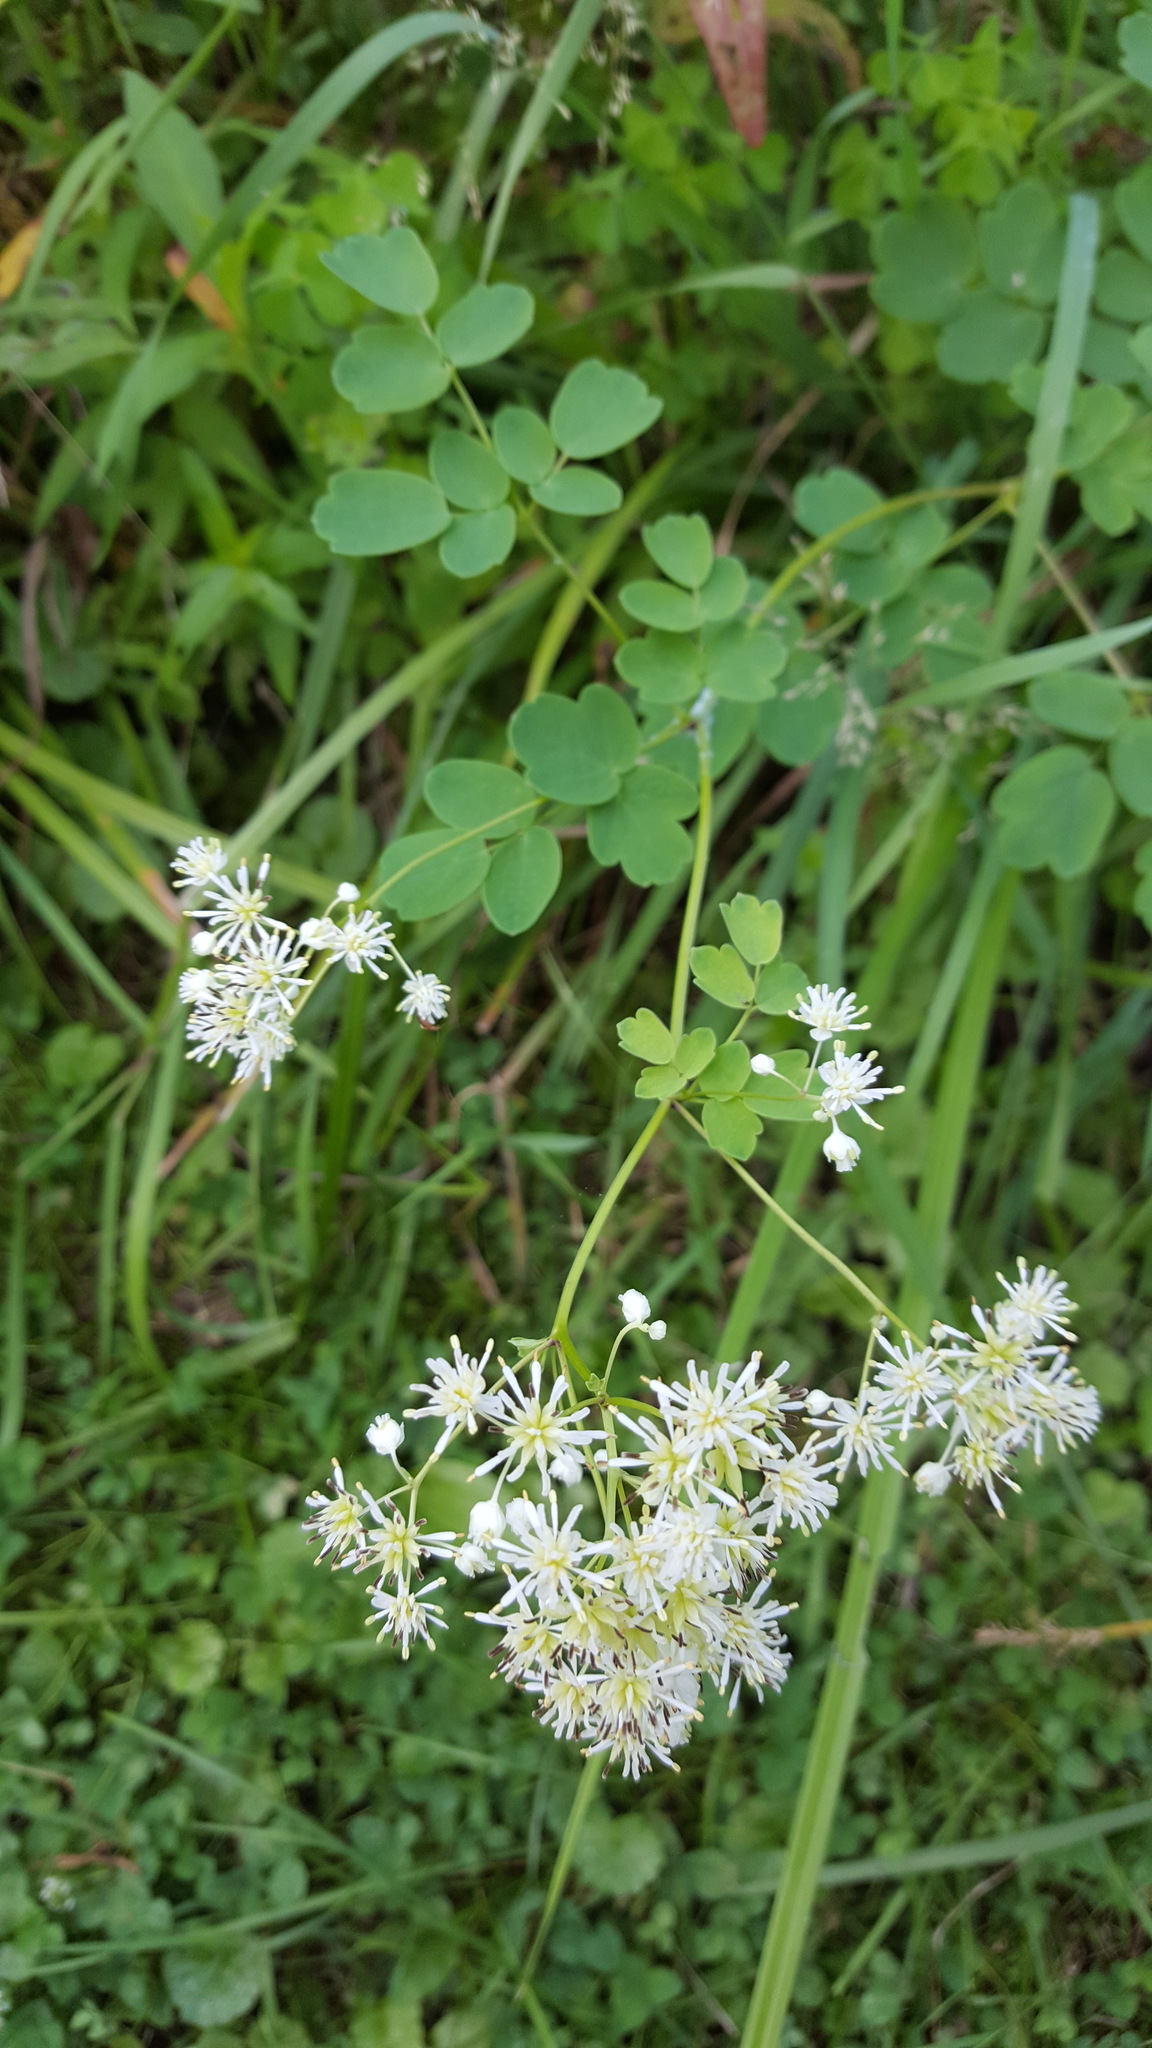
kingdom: Plantae
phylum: Tracheophyta
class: Magnoliopsida
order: Ranunculales
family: Ranunculaceae
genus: Thalictrum
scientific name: Thalictrum pubescens
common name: King-of-the-meadow
